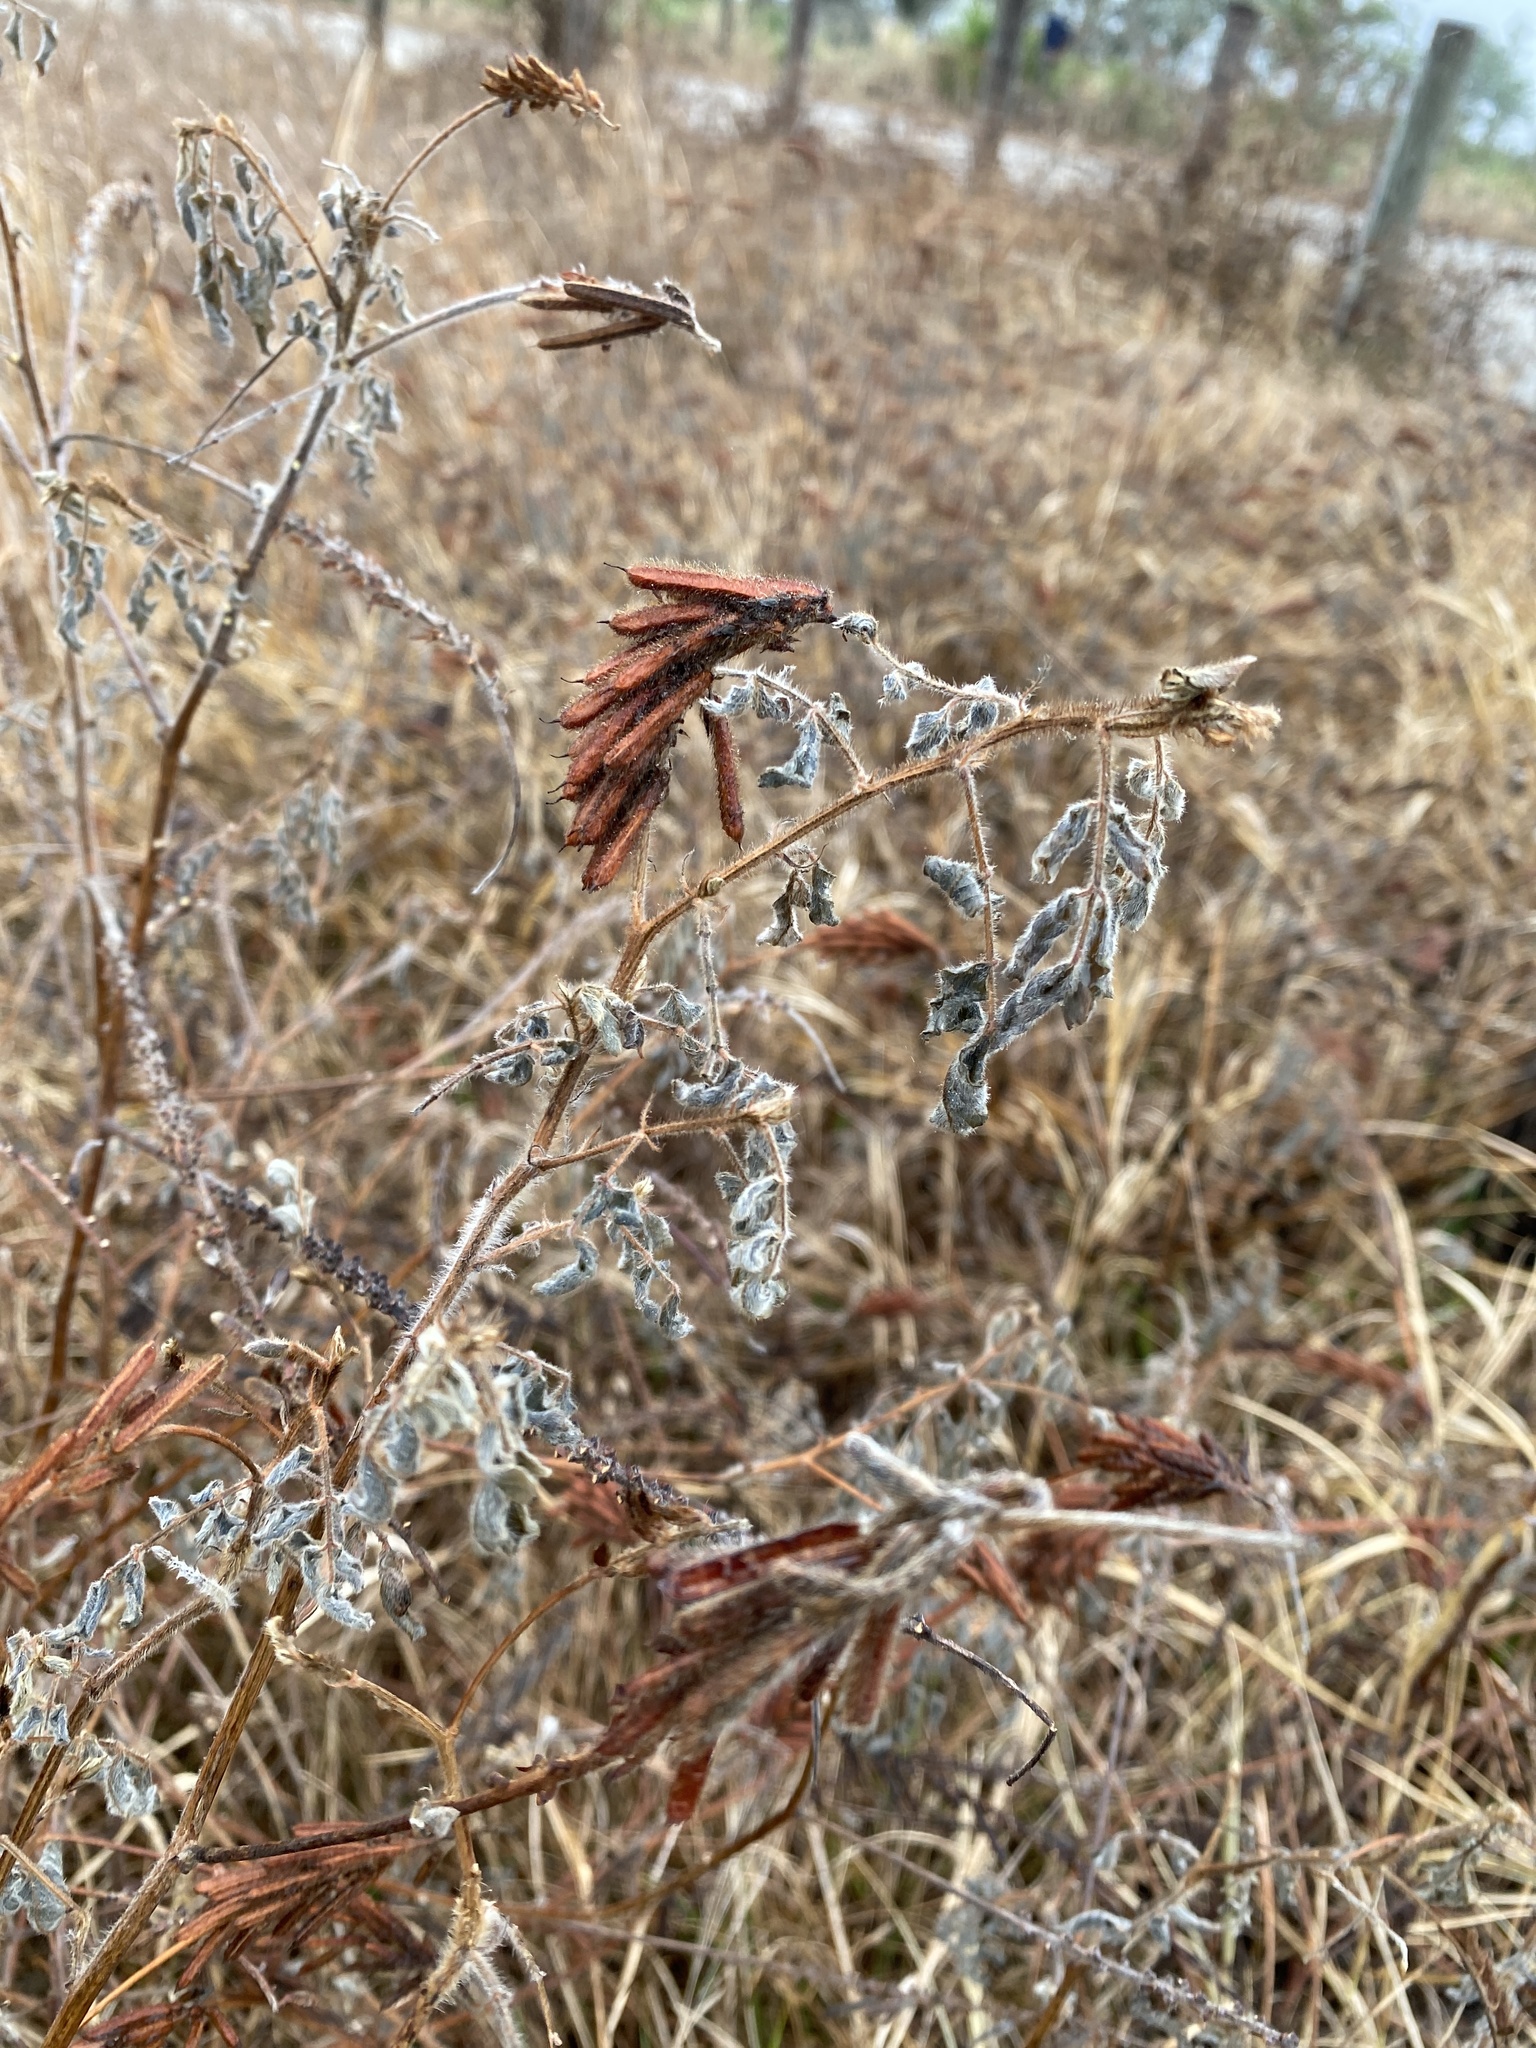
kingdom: Plantae
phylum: Tracheophyta
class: Magnoliopsida
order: Fabales
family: Fabaceae
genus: Indigofera
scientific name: Indigofera hirsuta
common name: Hairy indigo
